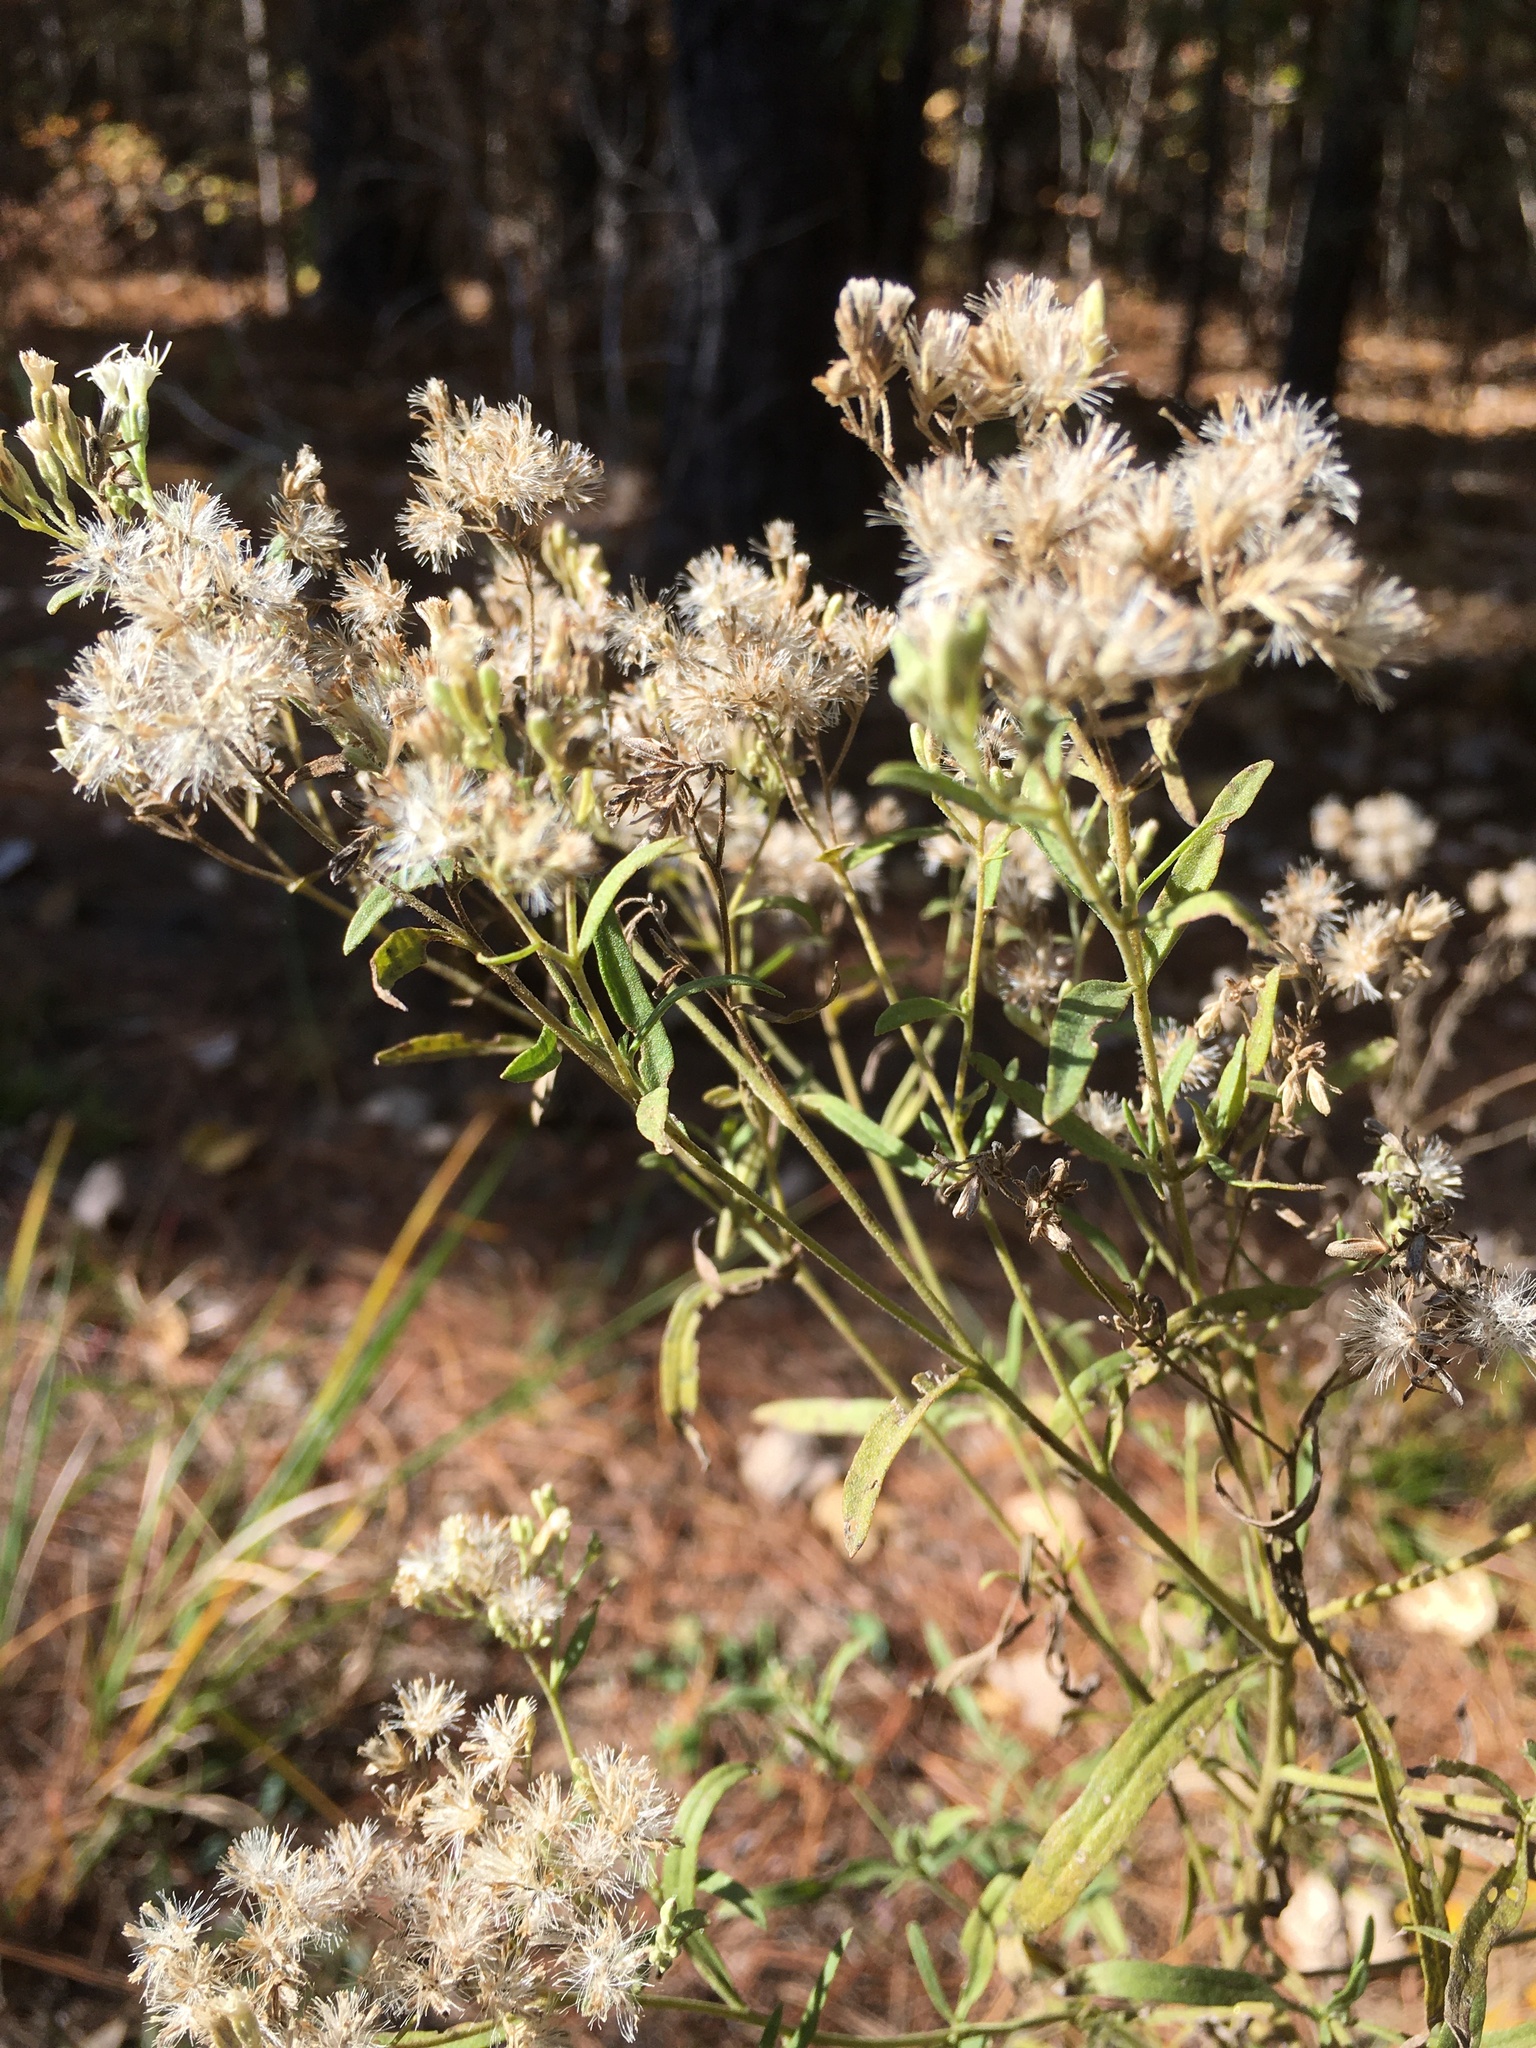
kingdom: Plantae
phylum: Tracheophyta
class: Magnoliopsida
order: Asterales
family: Asteraceae
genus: Eupatorium
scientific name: Eupatorium torreyanum
